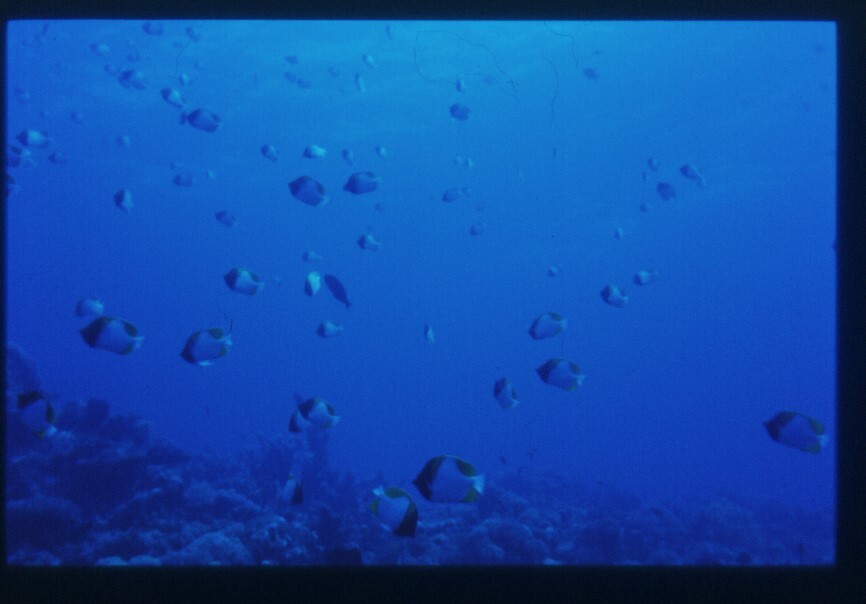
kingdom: Animalia
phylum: Chordata
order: Perciformes
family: Chaetodontidae
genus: Hemitaurichthys
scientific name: Hemitaurichthys polylepis
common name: Brushytoothed butterflyfish
